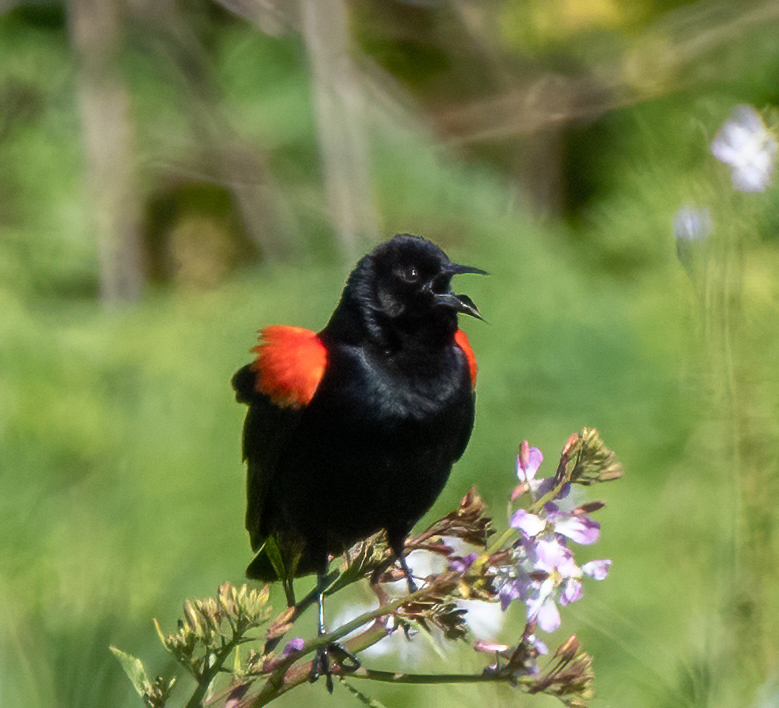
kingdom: Animalia
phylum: Chordata
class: Aves
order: Passeriformes
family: Icteridae
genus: Agelaius
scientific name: Agelaius phoeniceus
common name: Red-winged blackbird
